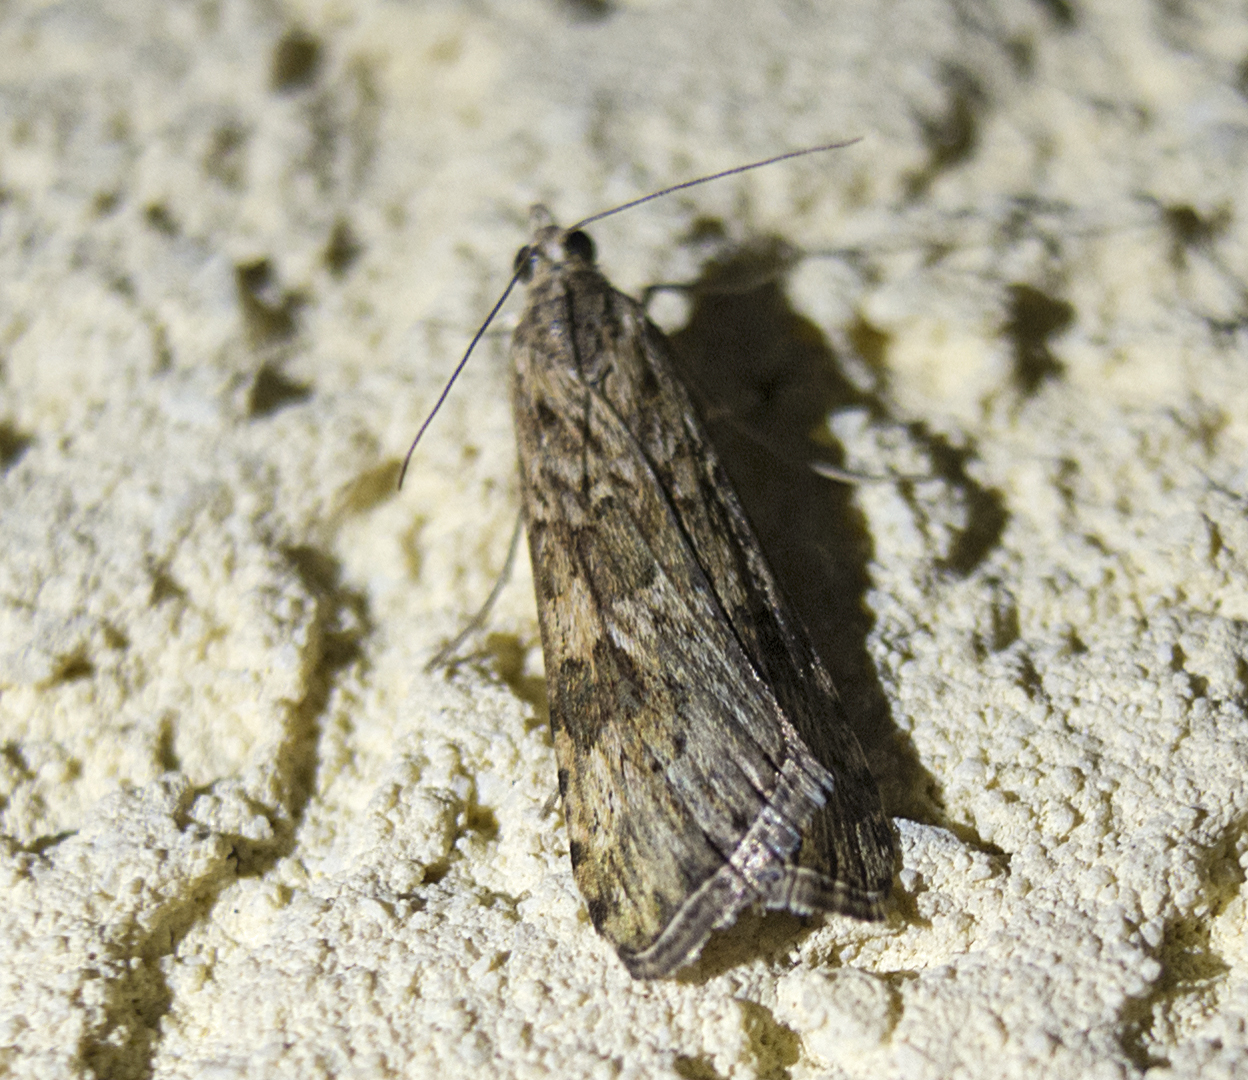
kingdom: Animalia
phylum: Arthropoda
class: Insecta
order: Lepidoptera
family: Crambidae
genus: Nomophila
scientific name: Nomophila noctuella
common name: Rush veneer
